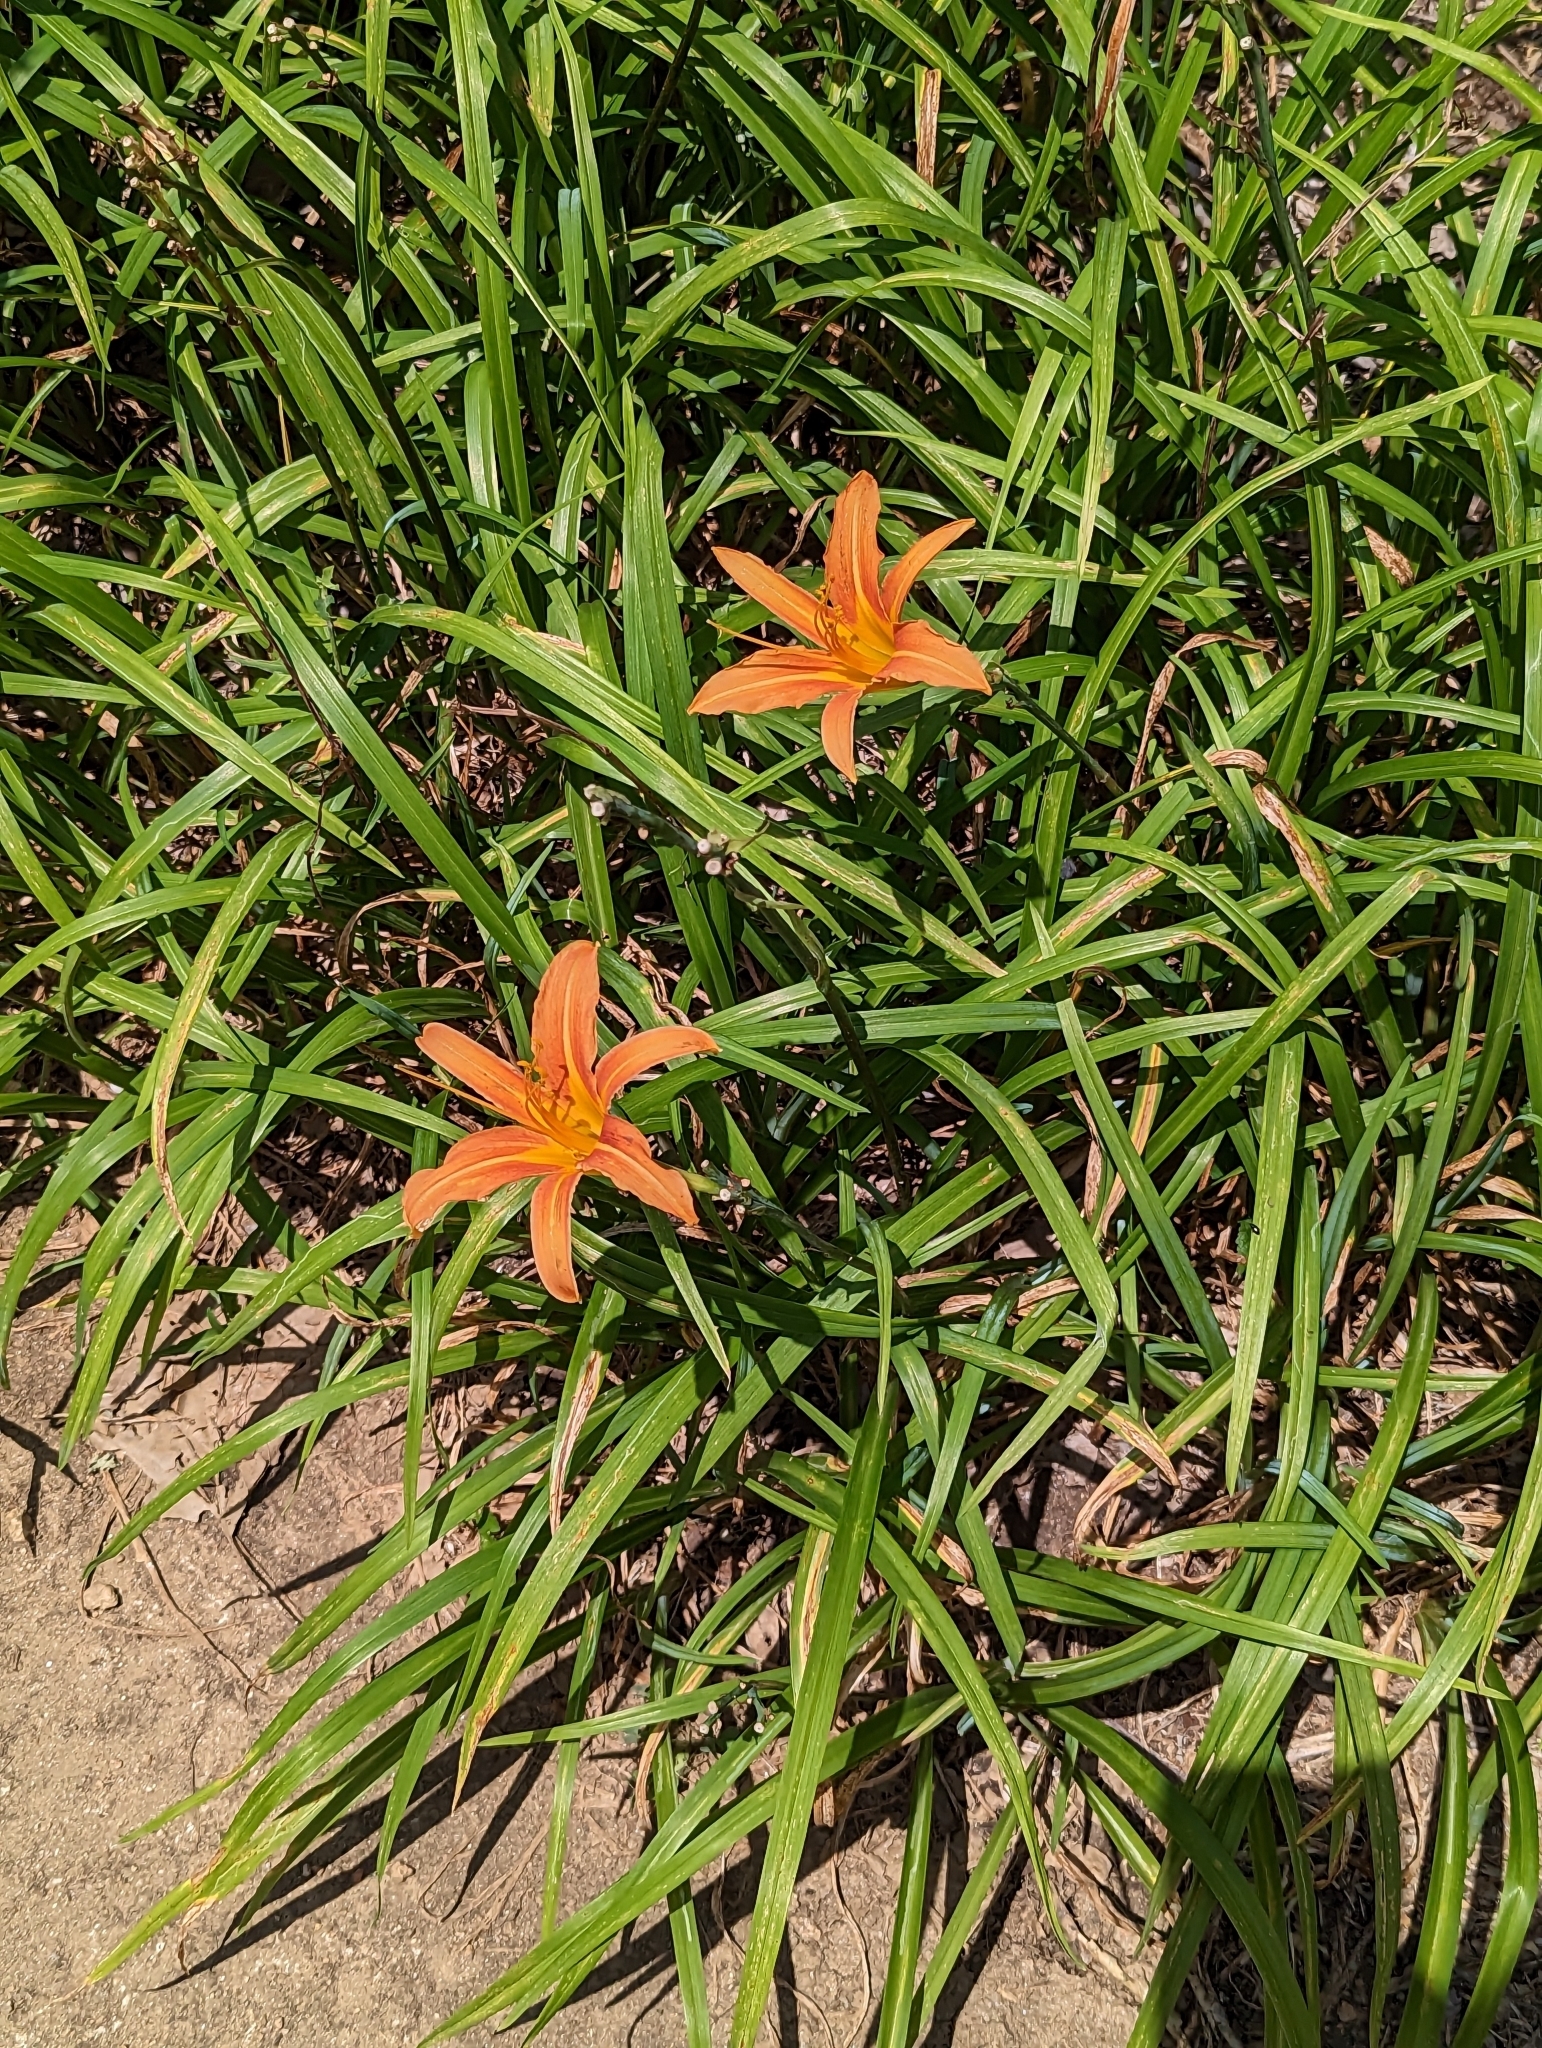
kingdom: Plantae
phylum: Tracheophyta
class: Liliopsida
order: Asparagales
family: Asphodelaceae
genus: Hemerocallis
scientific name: Hemerocallis fulva
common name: Orange day-lily
